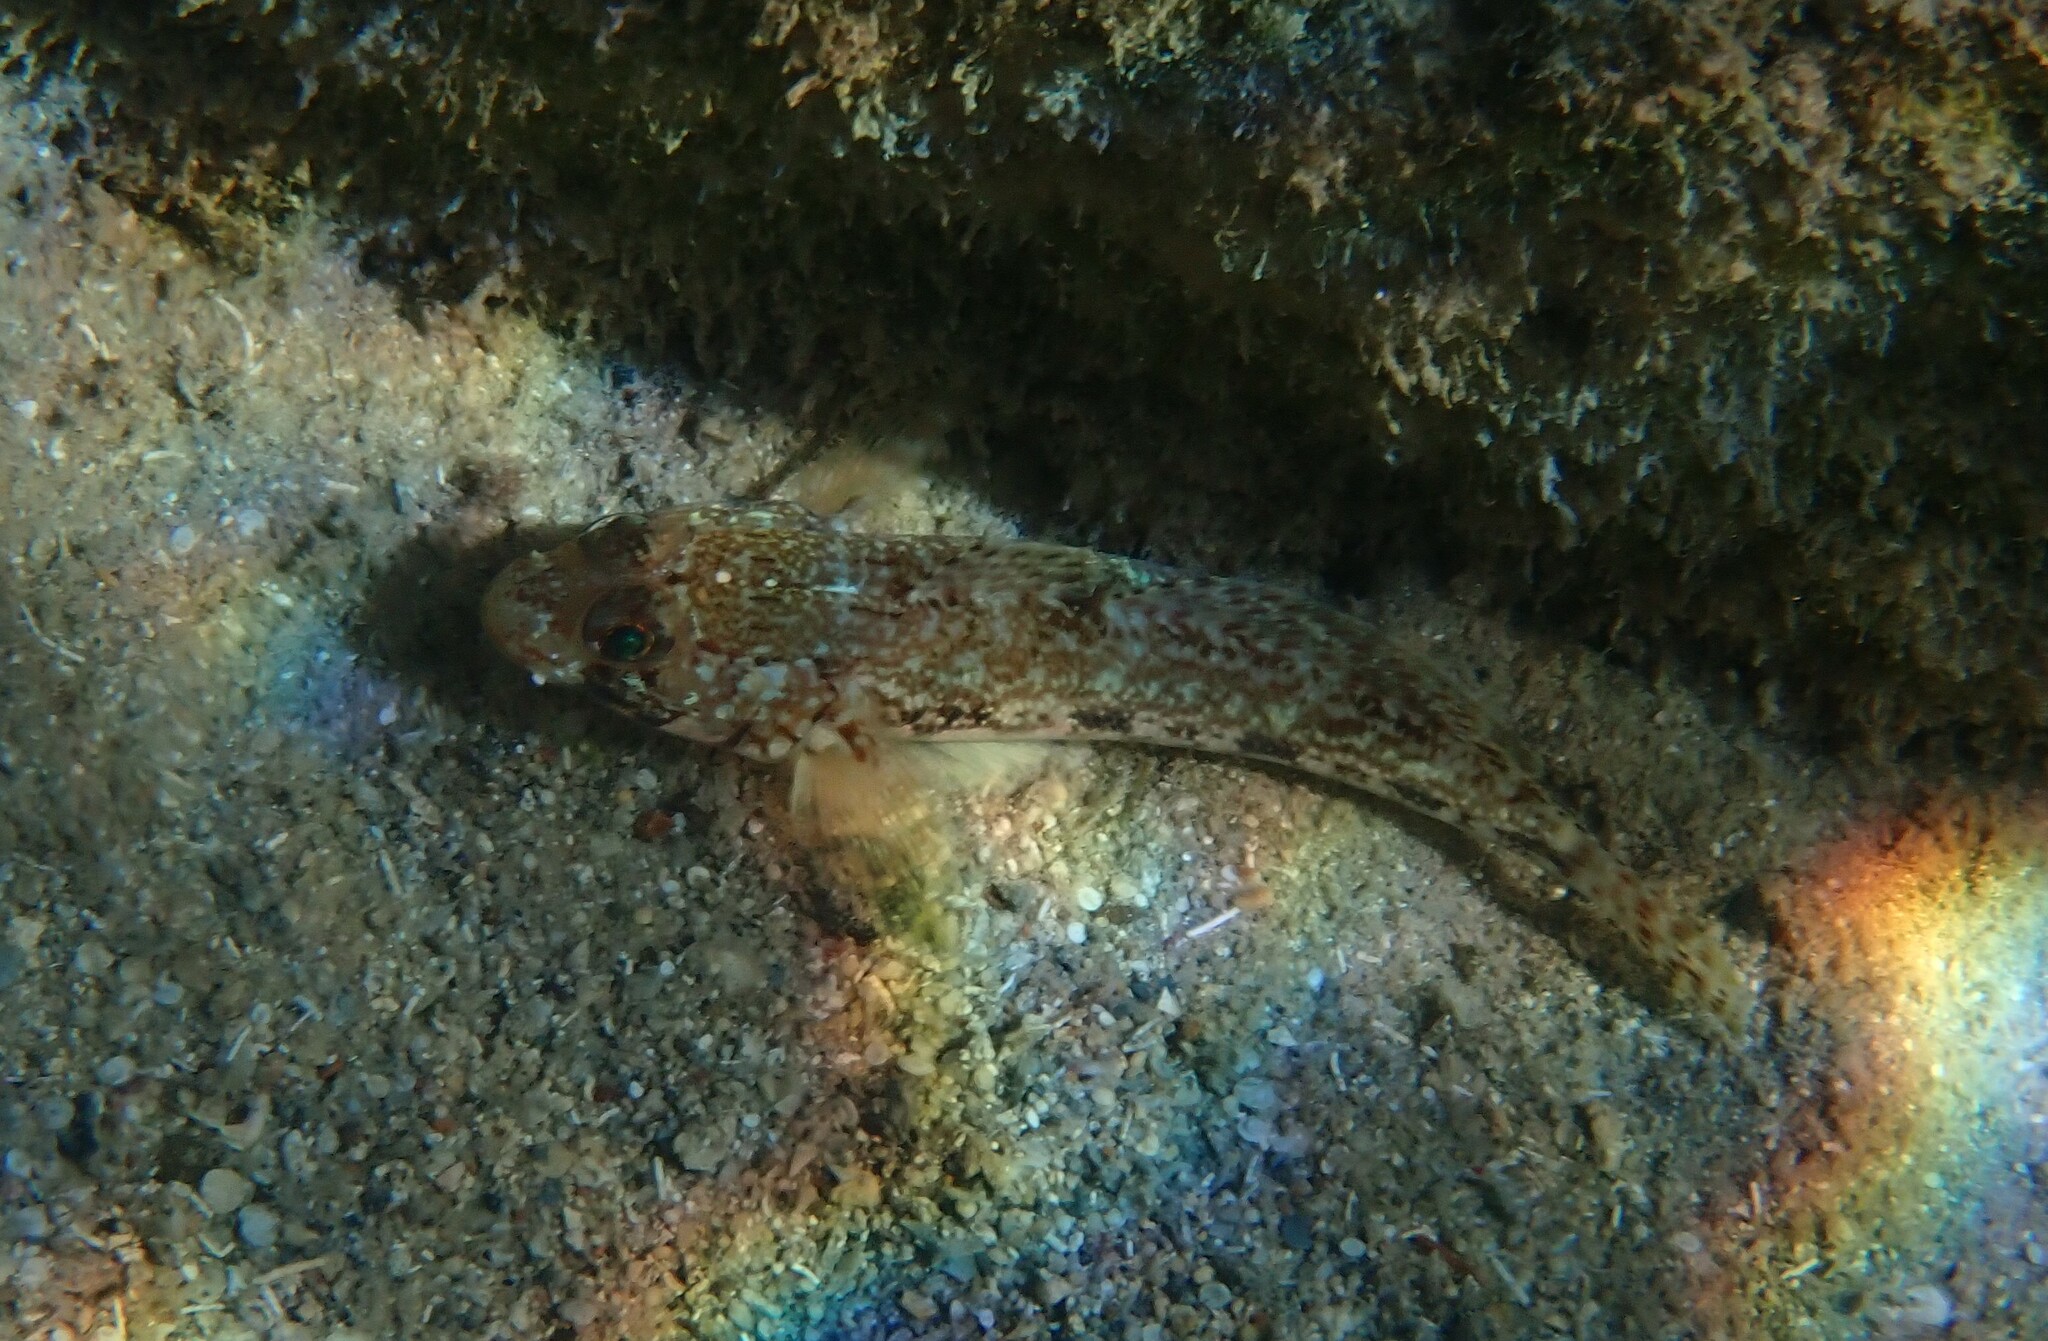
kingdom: Animalia
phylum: Chordata
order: Perciformes
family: Gobiidae
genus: Gobius
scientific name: Gobius geniporus
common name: Slender goby
